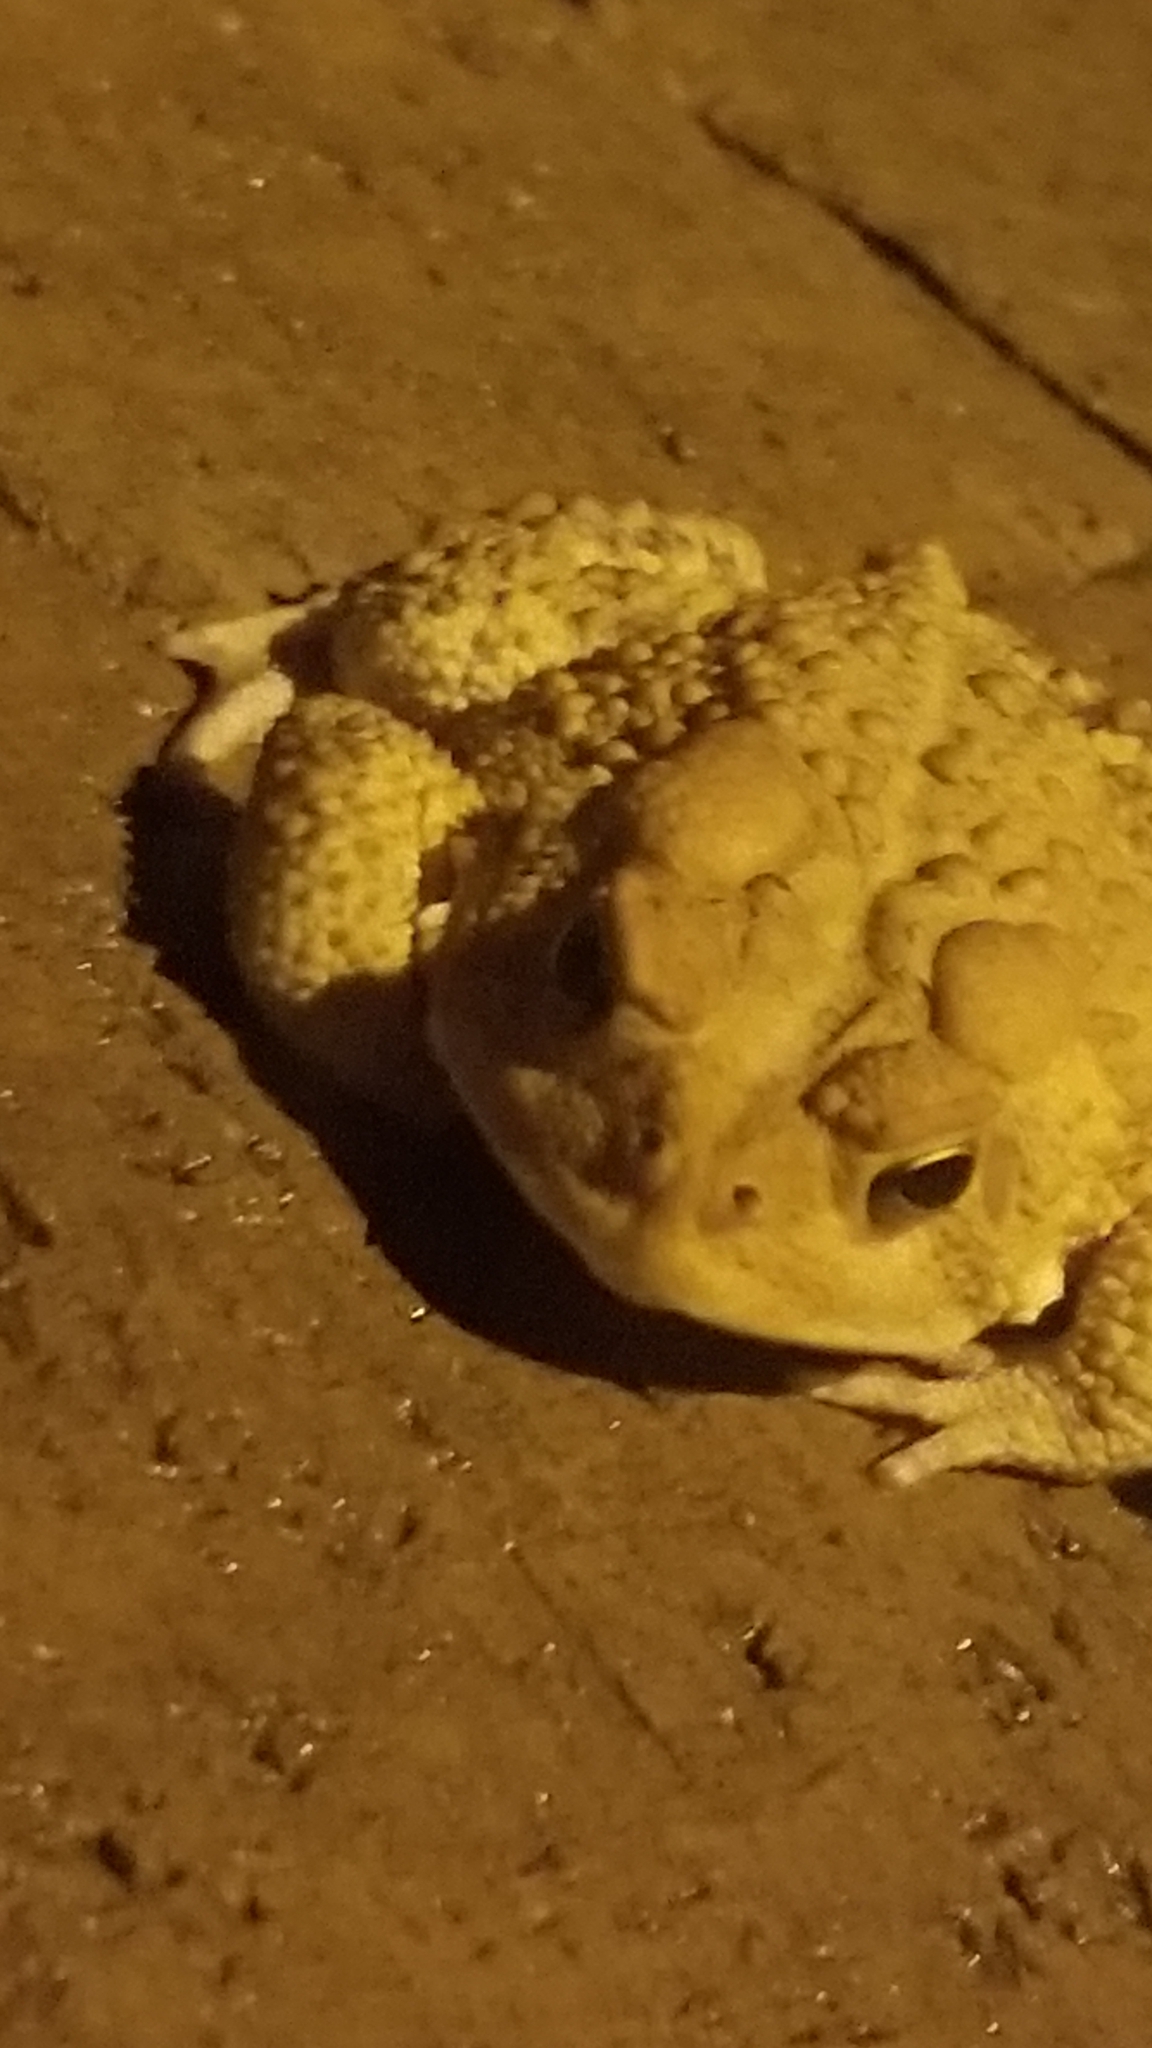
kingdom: Animalia
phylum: Chordata
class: Amphibia
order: Anura
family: Bufonidae
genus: Anaxyrus
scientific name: Anaxyrus americanus
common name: American toad
